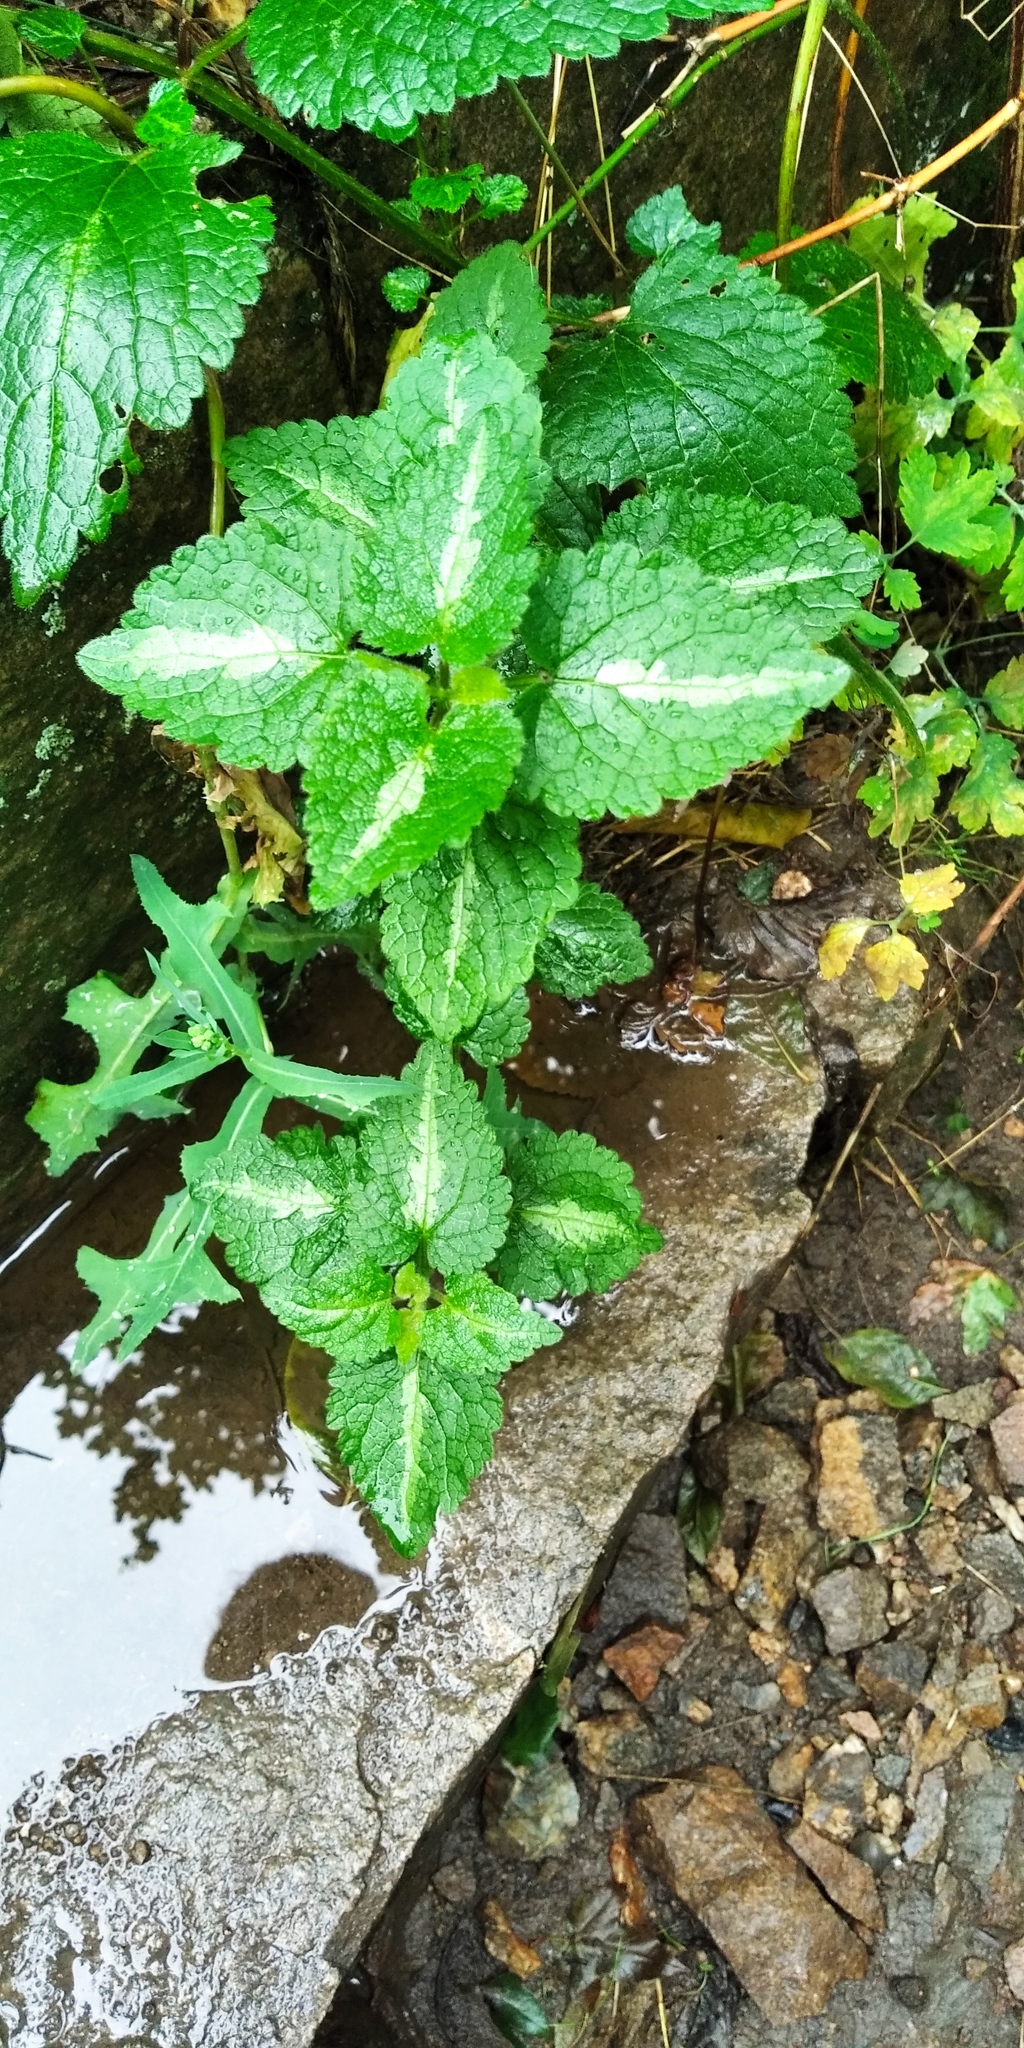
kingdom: Plantae
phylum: Tracheophyta
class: Magnoliopsida
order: Lamiales
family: Lamiaceae
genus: Lamium
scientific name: Lamium maculatum
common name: Spotted dead-nettle
